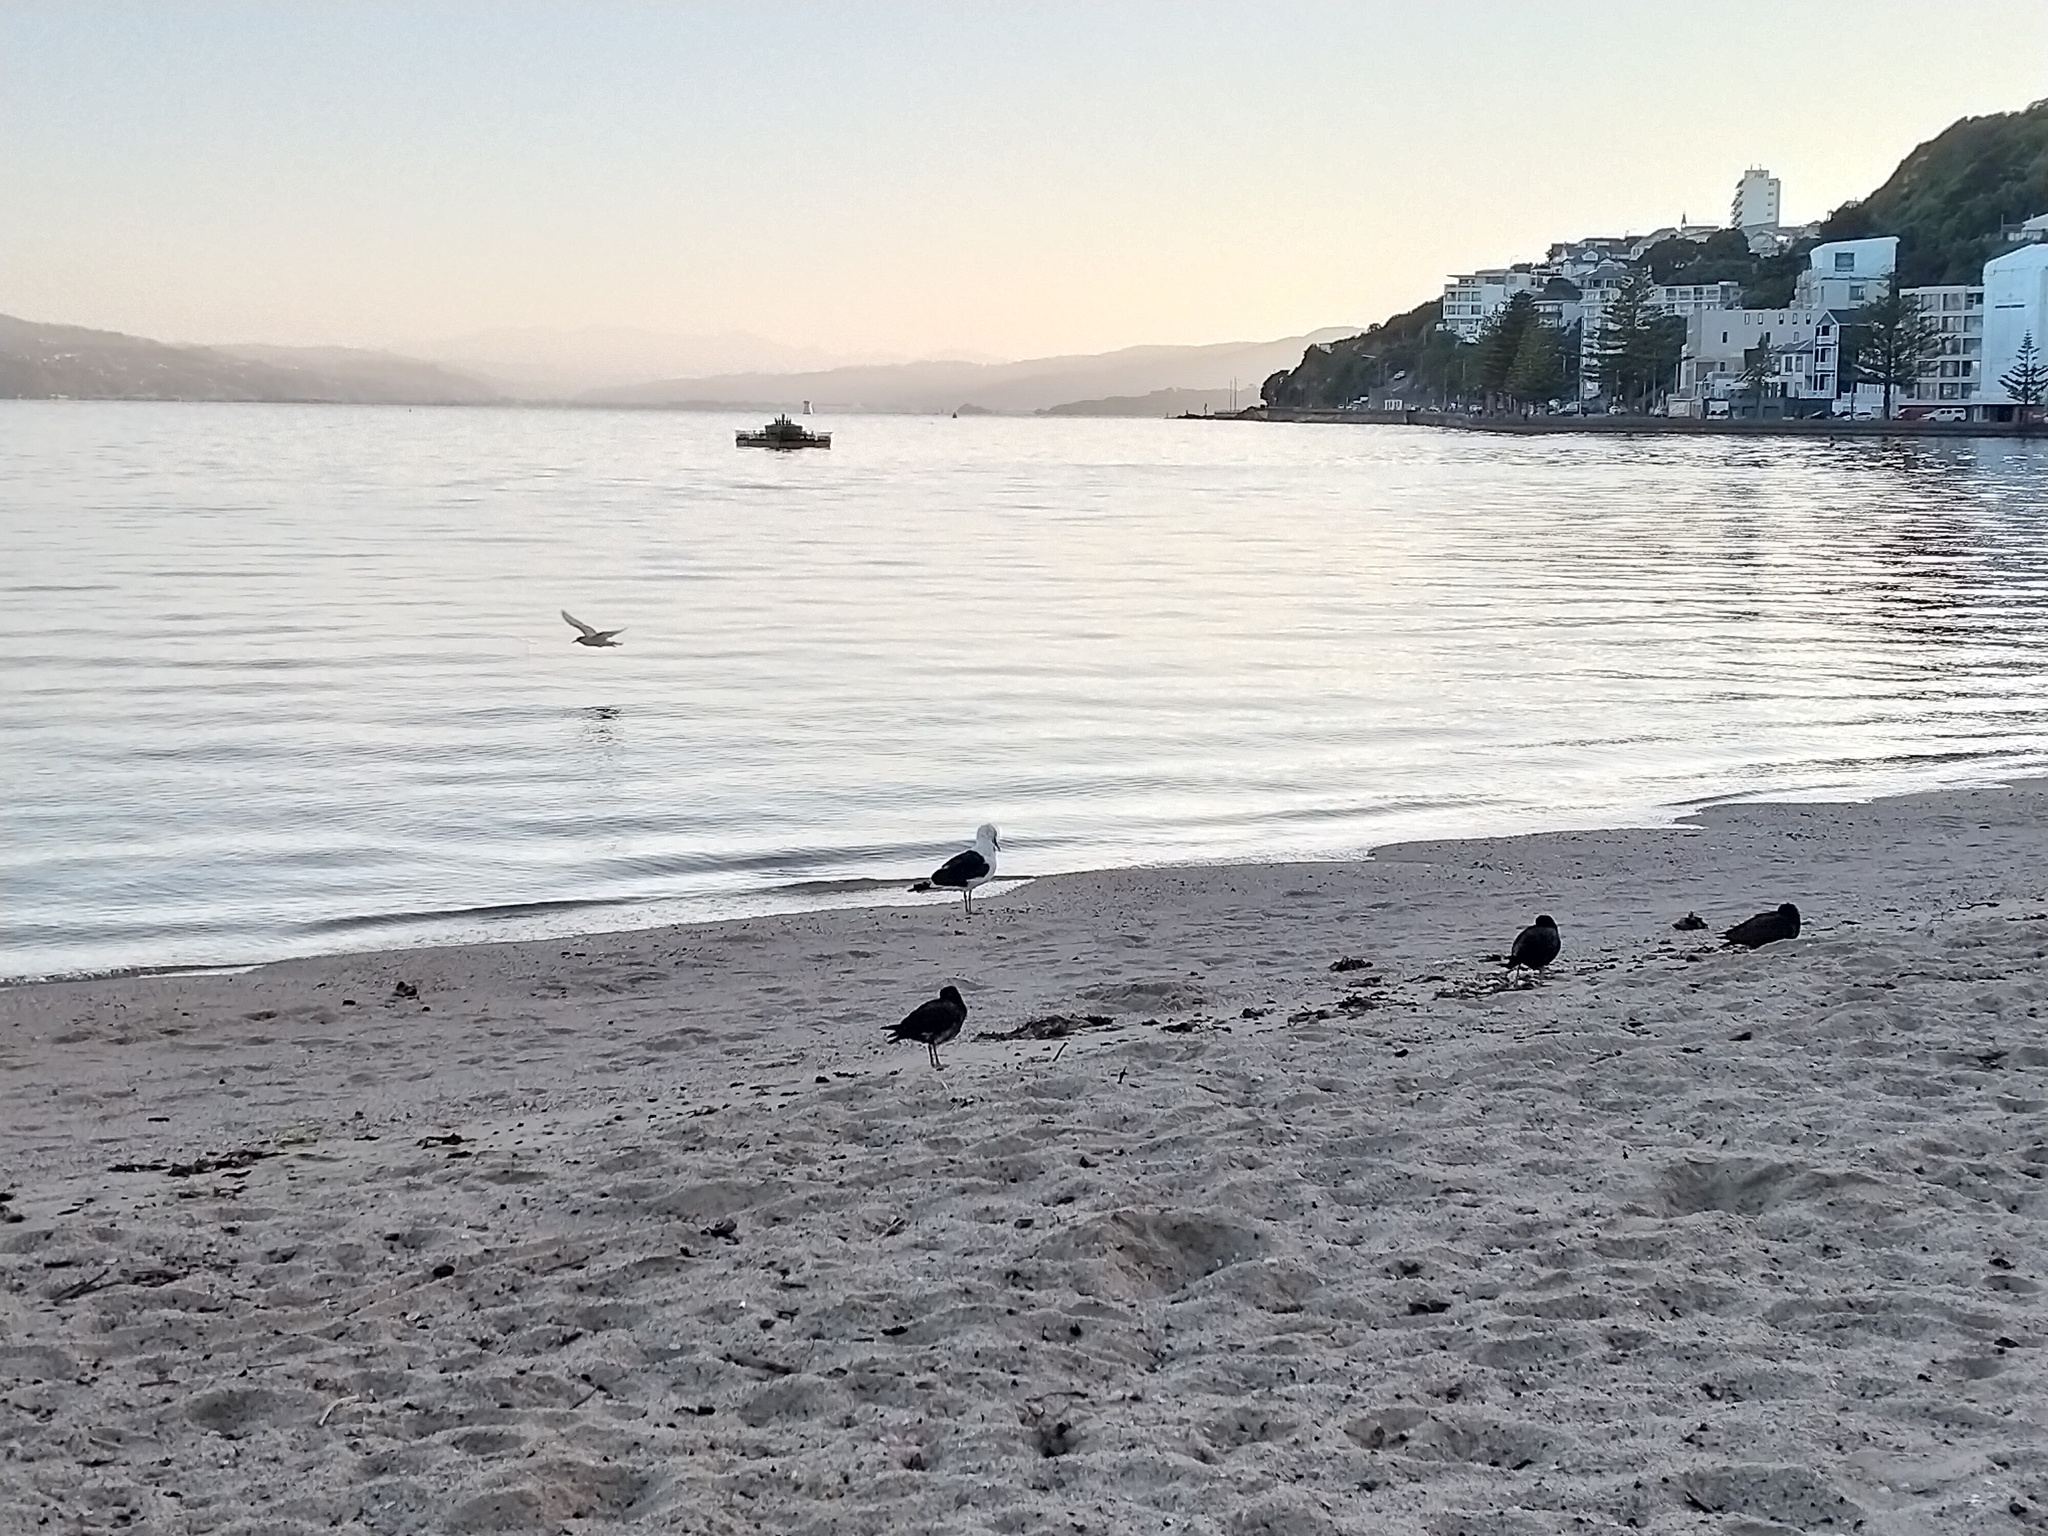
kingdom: Animalia
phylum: Chordata
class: Aves
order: Charadriiformes
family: Laridae
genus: Larus
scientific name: Larus dominicanus
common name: Kelp gull
